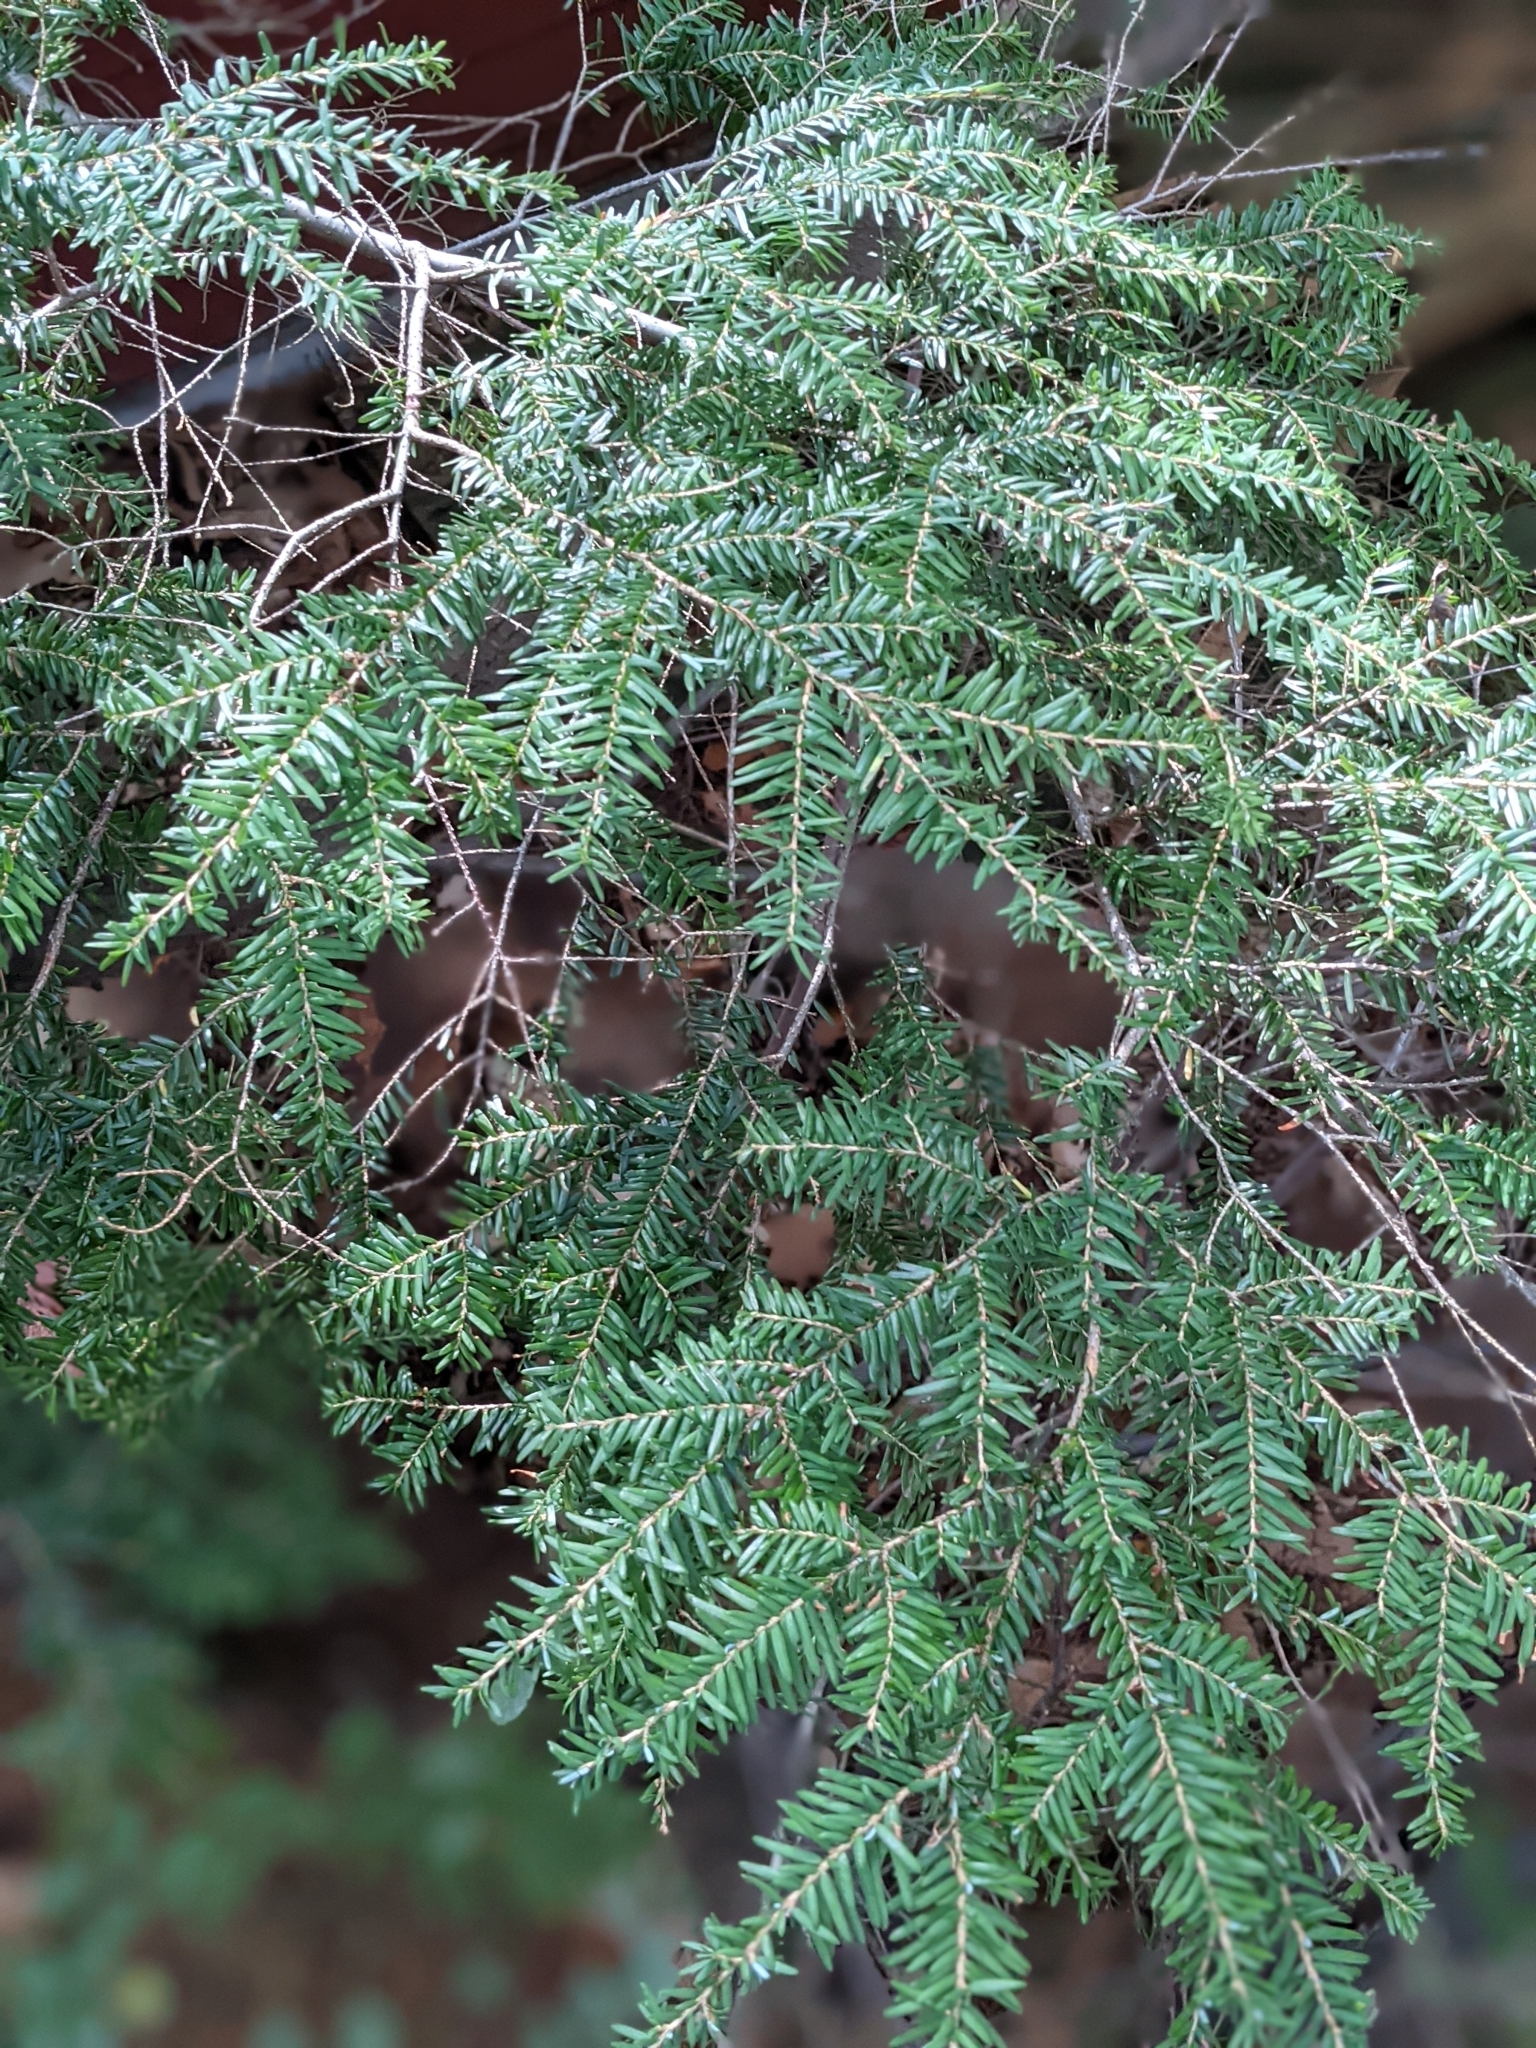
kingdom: Plantae
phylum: Tracheophyta
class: Pinopsida
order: Pinales
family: Pinaceae
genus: Tsuga
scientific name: Tsuga heterophylla
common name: Western hemlock
